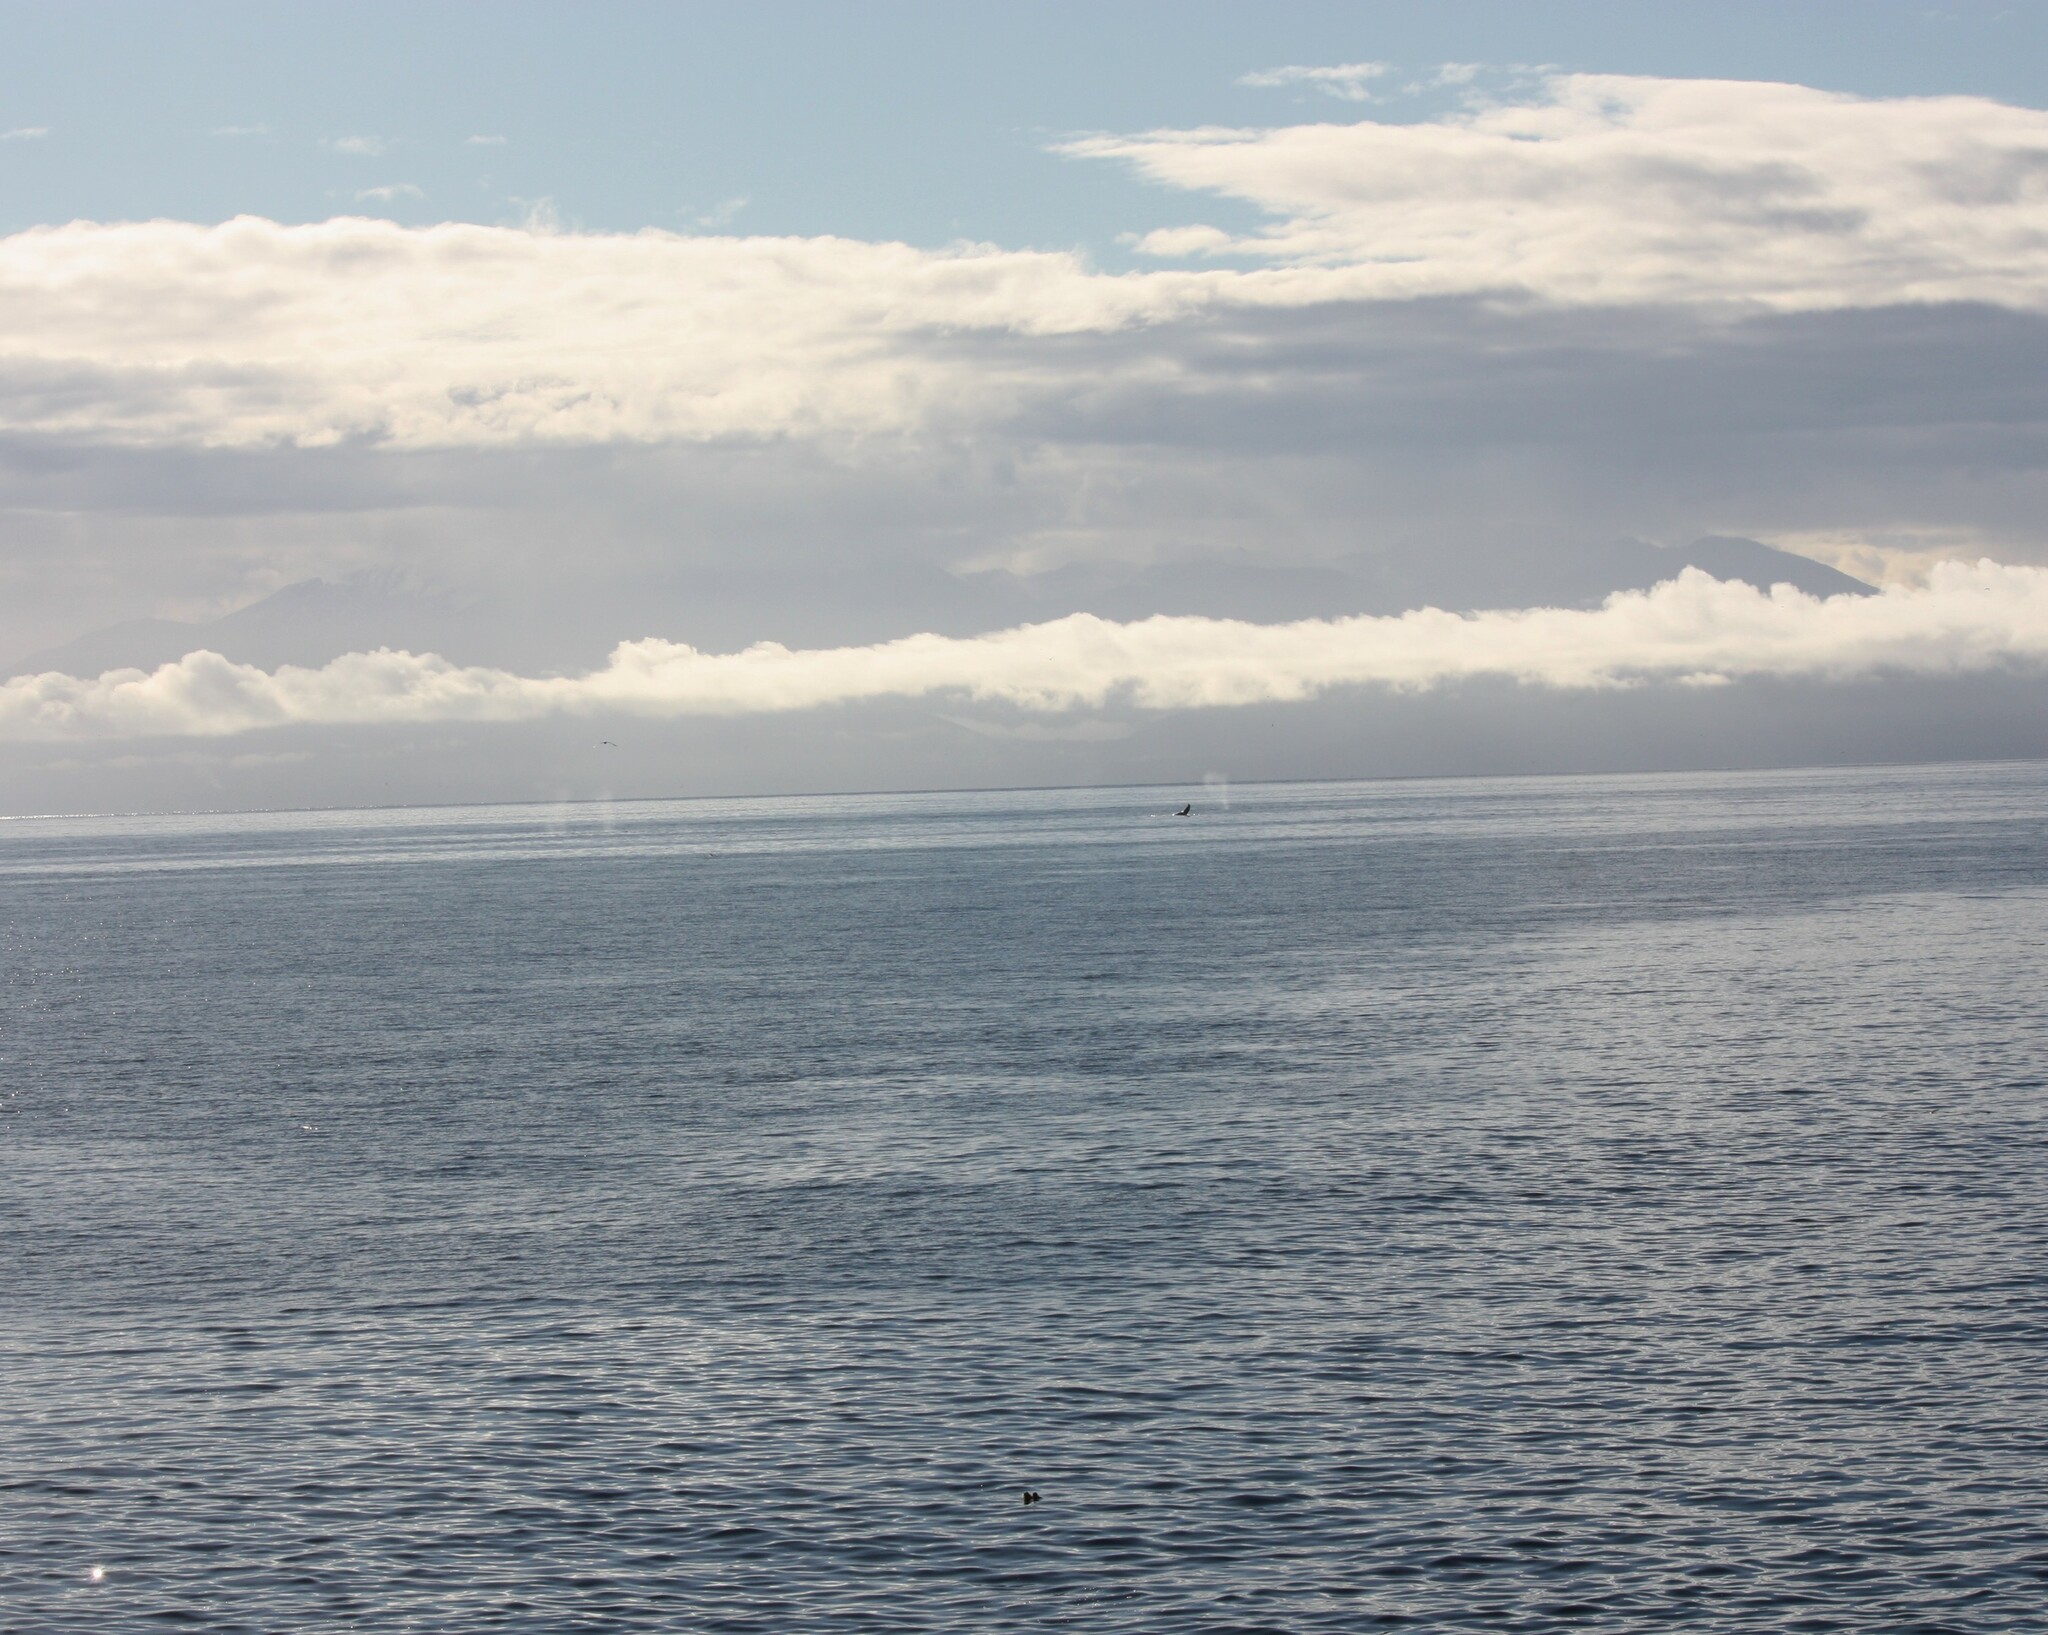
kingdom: Animalia
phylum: Chordata
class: Mammalia
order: Cetacea
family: Balaenopteridae
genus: Megaptera
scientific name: Megaptera novaeangliae
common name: Humpback whale
